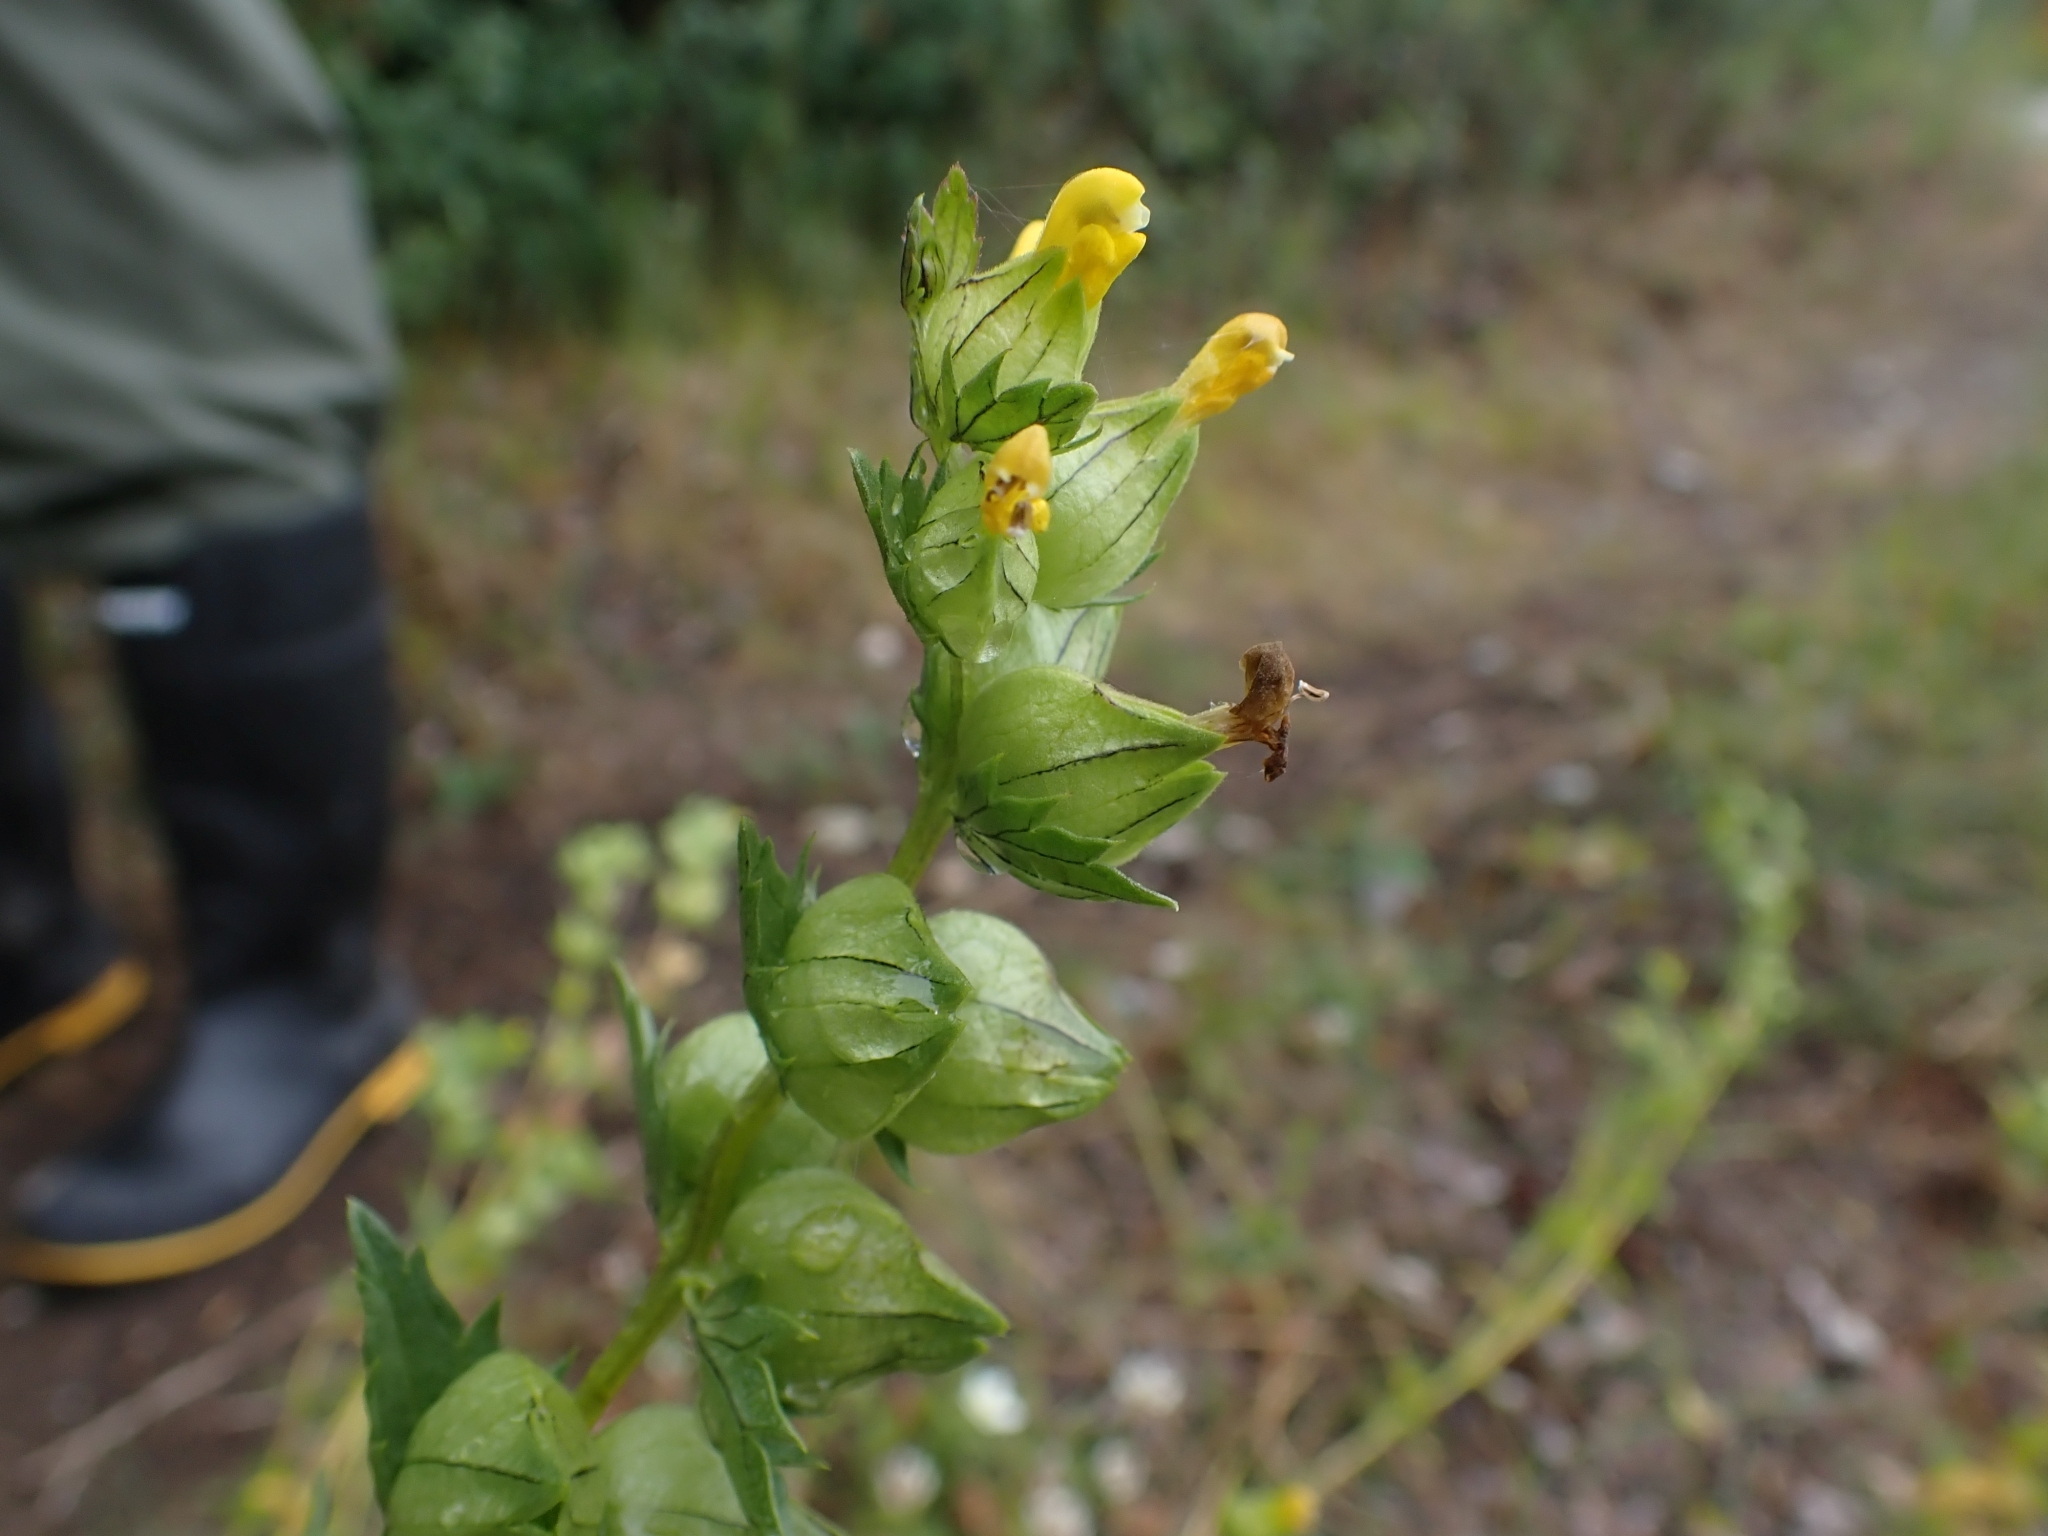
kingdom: Plantae
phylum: Tracheophyta
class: Magnoliopsida
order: Lamiales
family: Orobanchaceae
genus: Rhinanthus
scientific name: Rhinanthus groenlandicus
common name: Little yellow rattle
